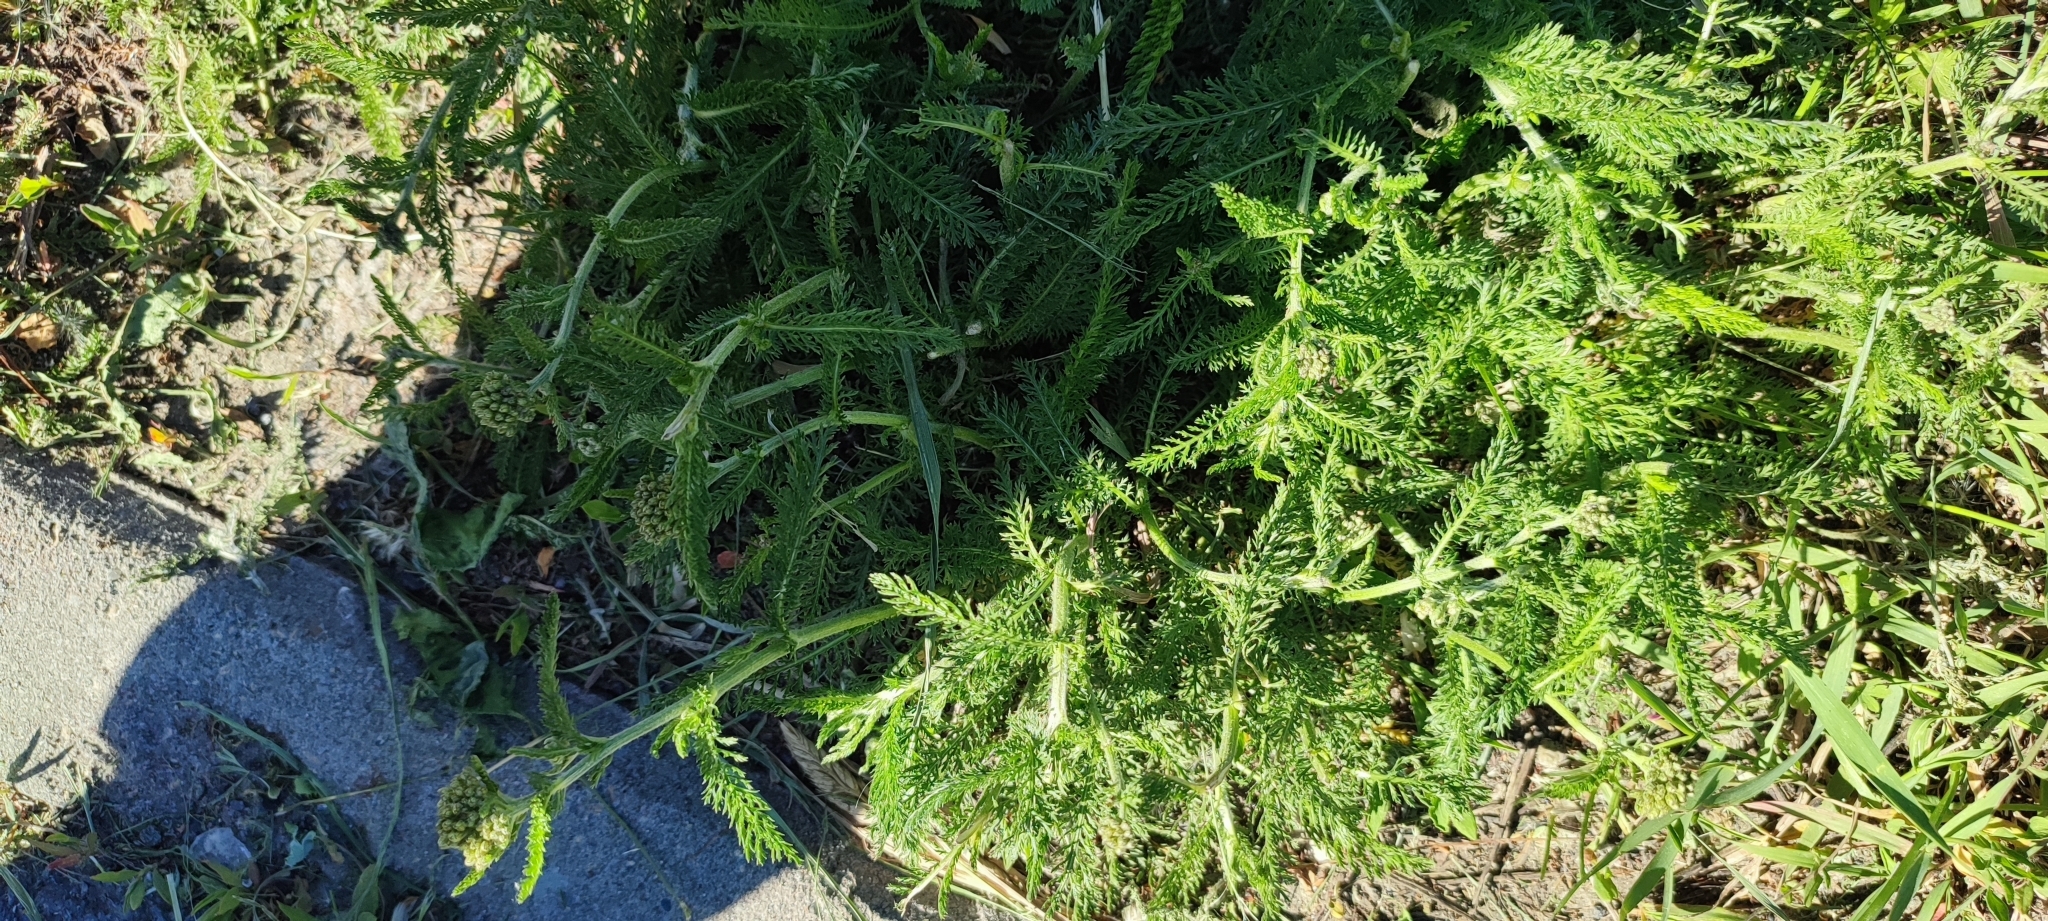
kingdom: Plantae
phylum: Tracheophyta
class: Magnoliopsida
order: Asterales
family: Asteraceae
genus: Achillea
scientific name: Achillea millefolium
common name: Yarrow
